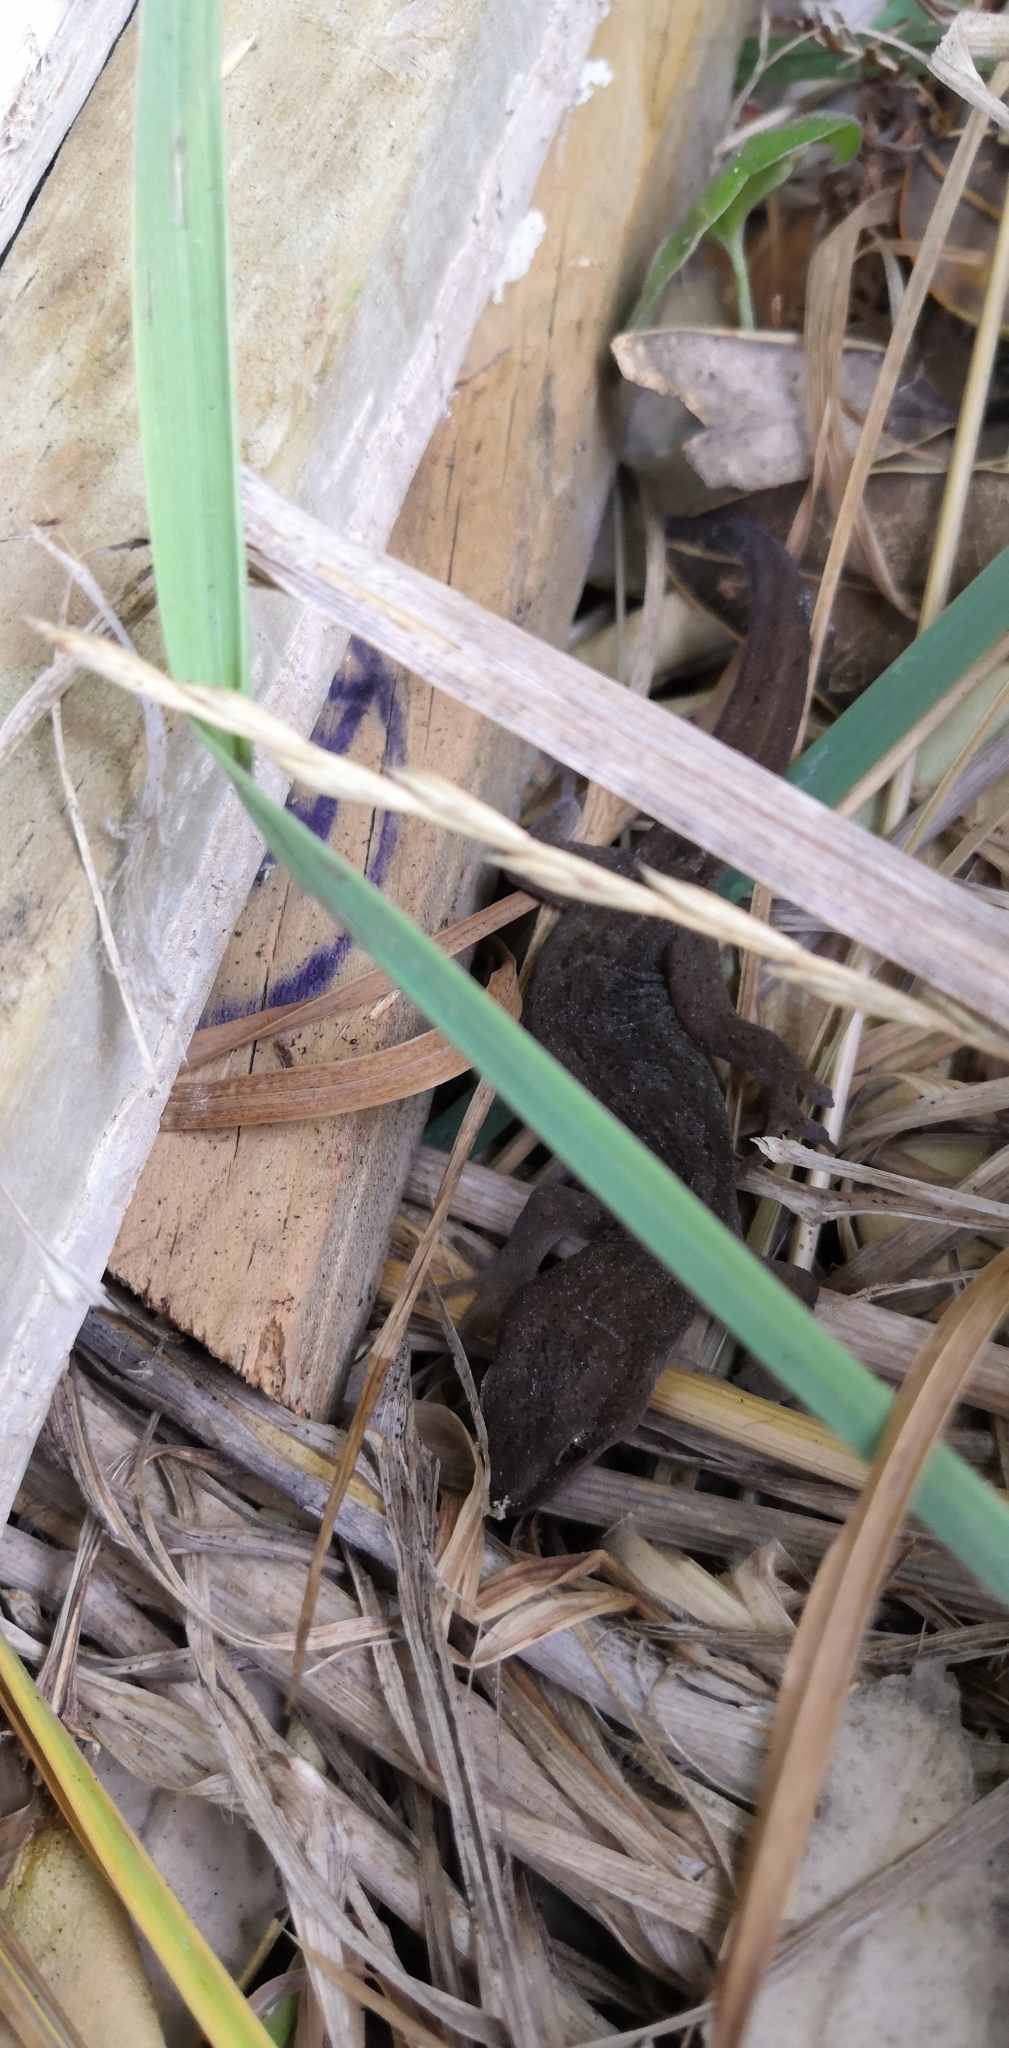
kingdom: Animalia
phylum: Chordata
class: Squamata
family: Diplodactylidae
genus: Woodworthia
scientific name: Woodworthia maculata
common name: Raukawa gecko
